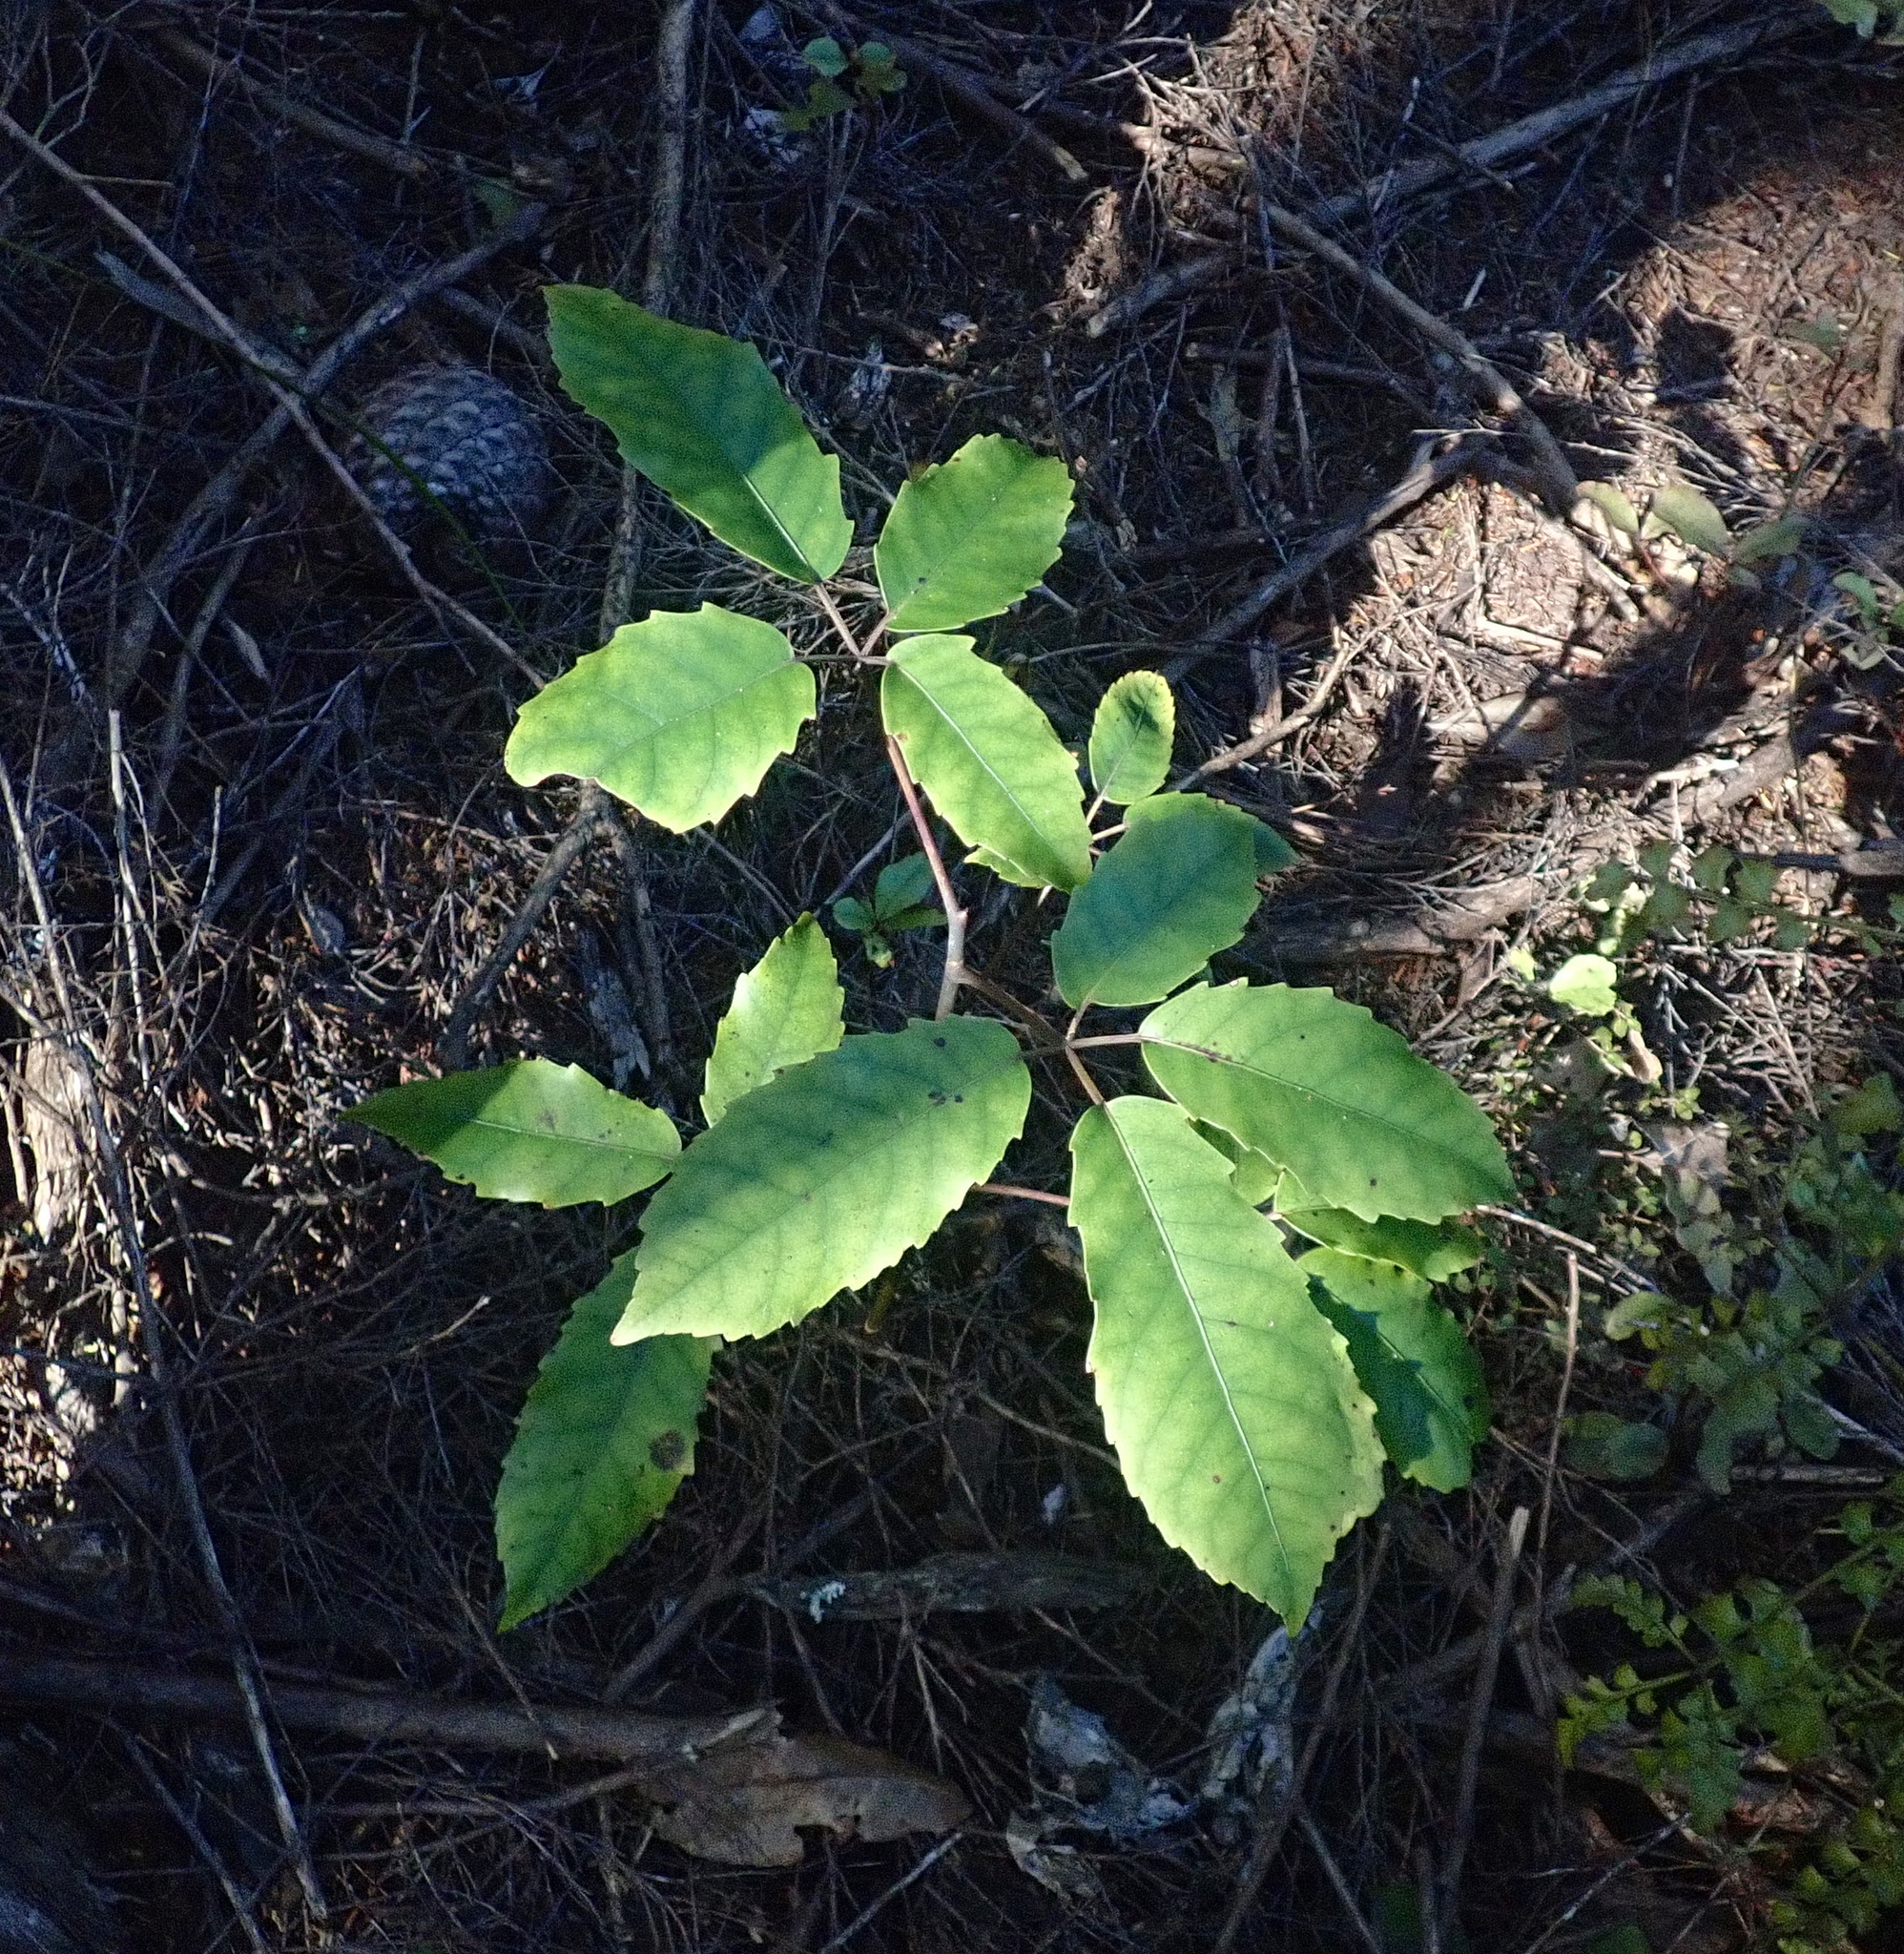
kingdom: Plantae
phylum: Tracheophyta
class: Magnoliopsida
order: Apiales
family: Araliaceae
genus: Neopanax
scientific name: Neopanax arboreus
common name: Five-fingers
